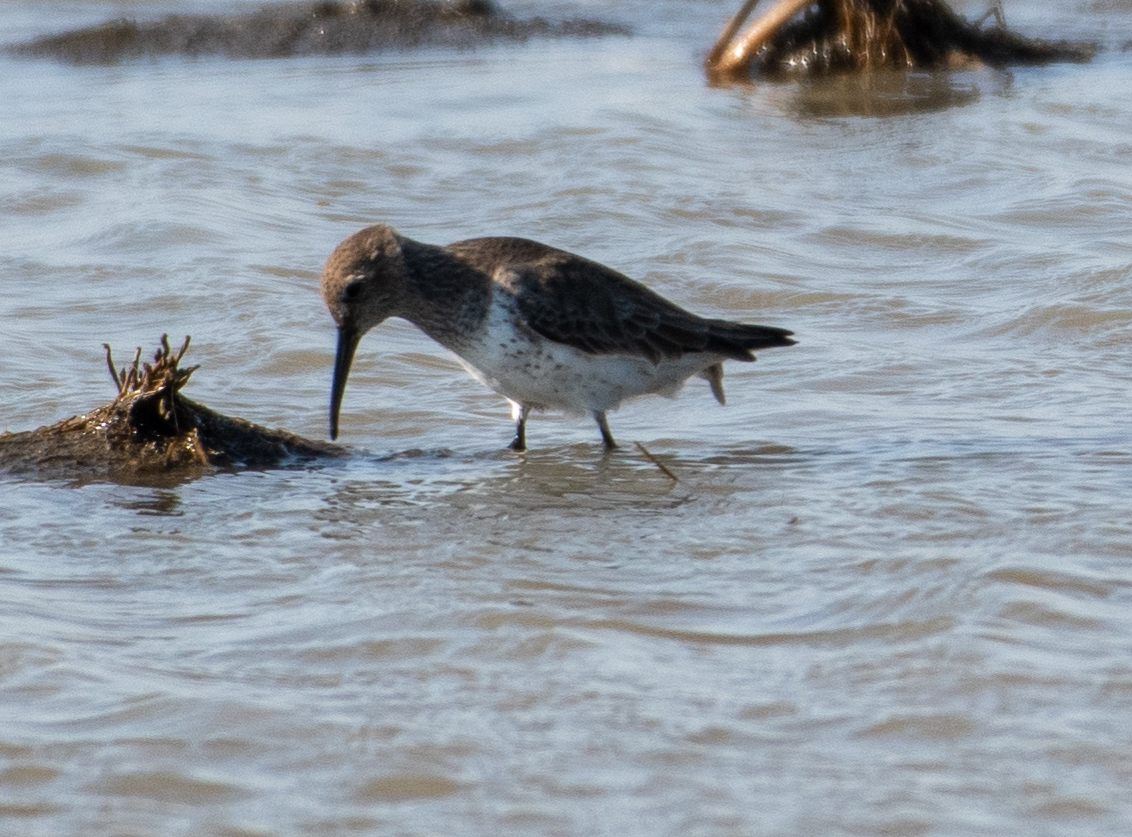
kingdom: Animalia
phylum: Chordata
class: Aves
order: Charadriiformes
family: Scolopacidae
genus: Calidris
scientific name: Calidris alpina
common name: Dunlin
